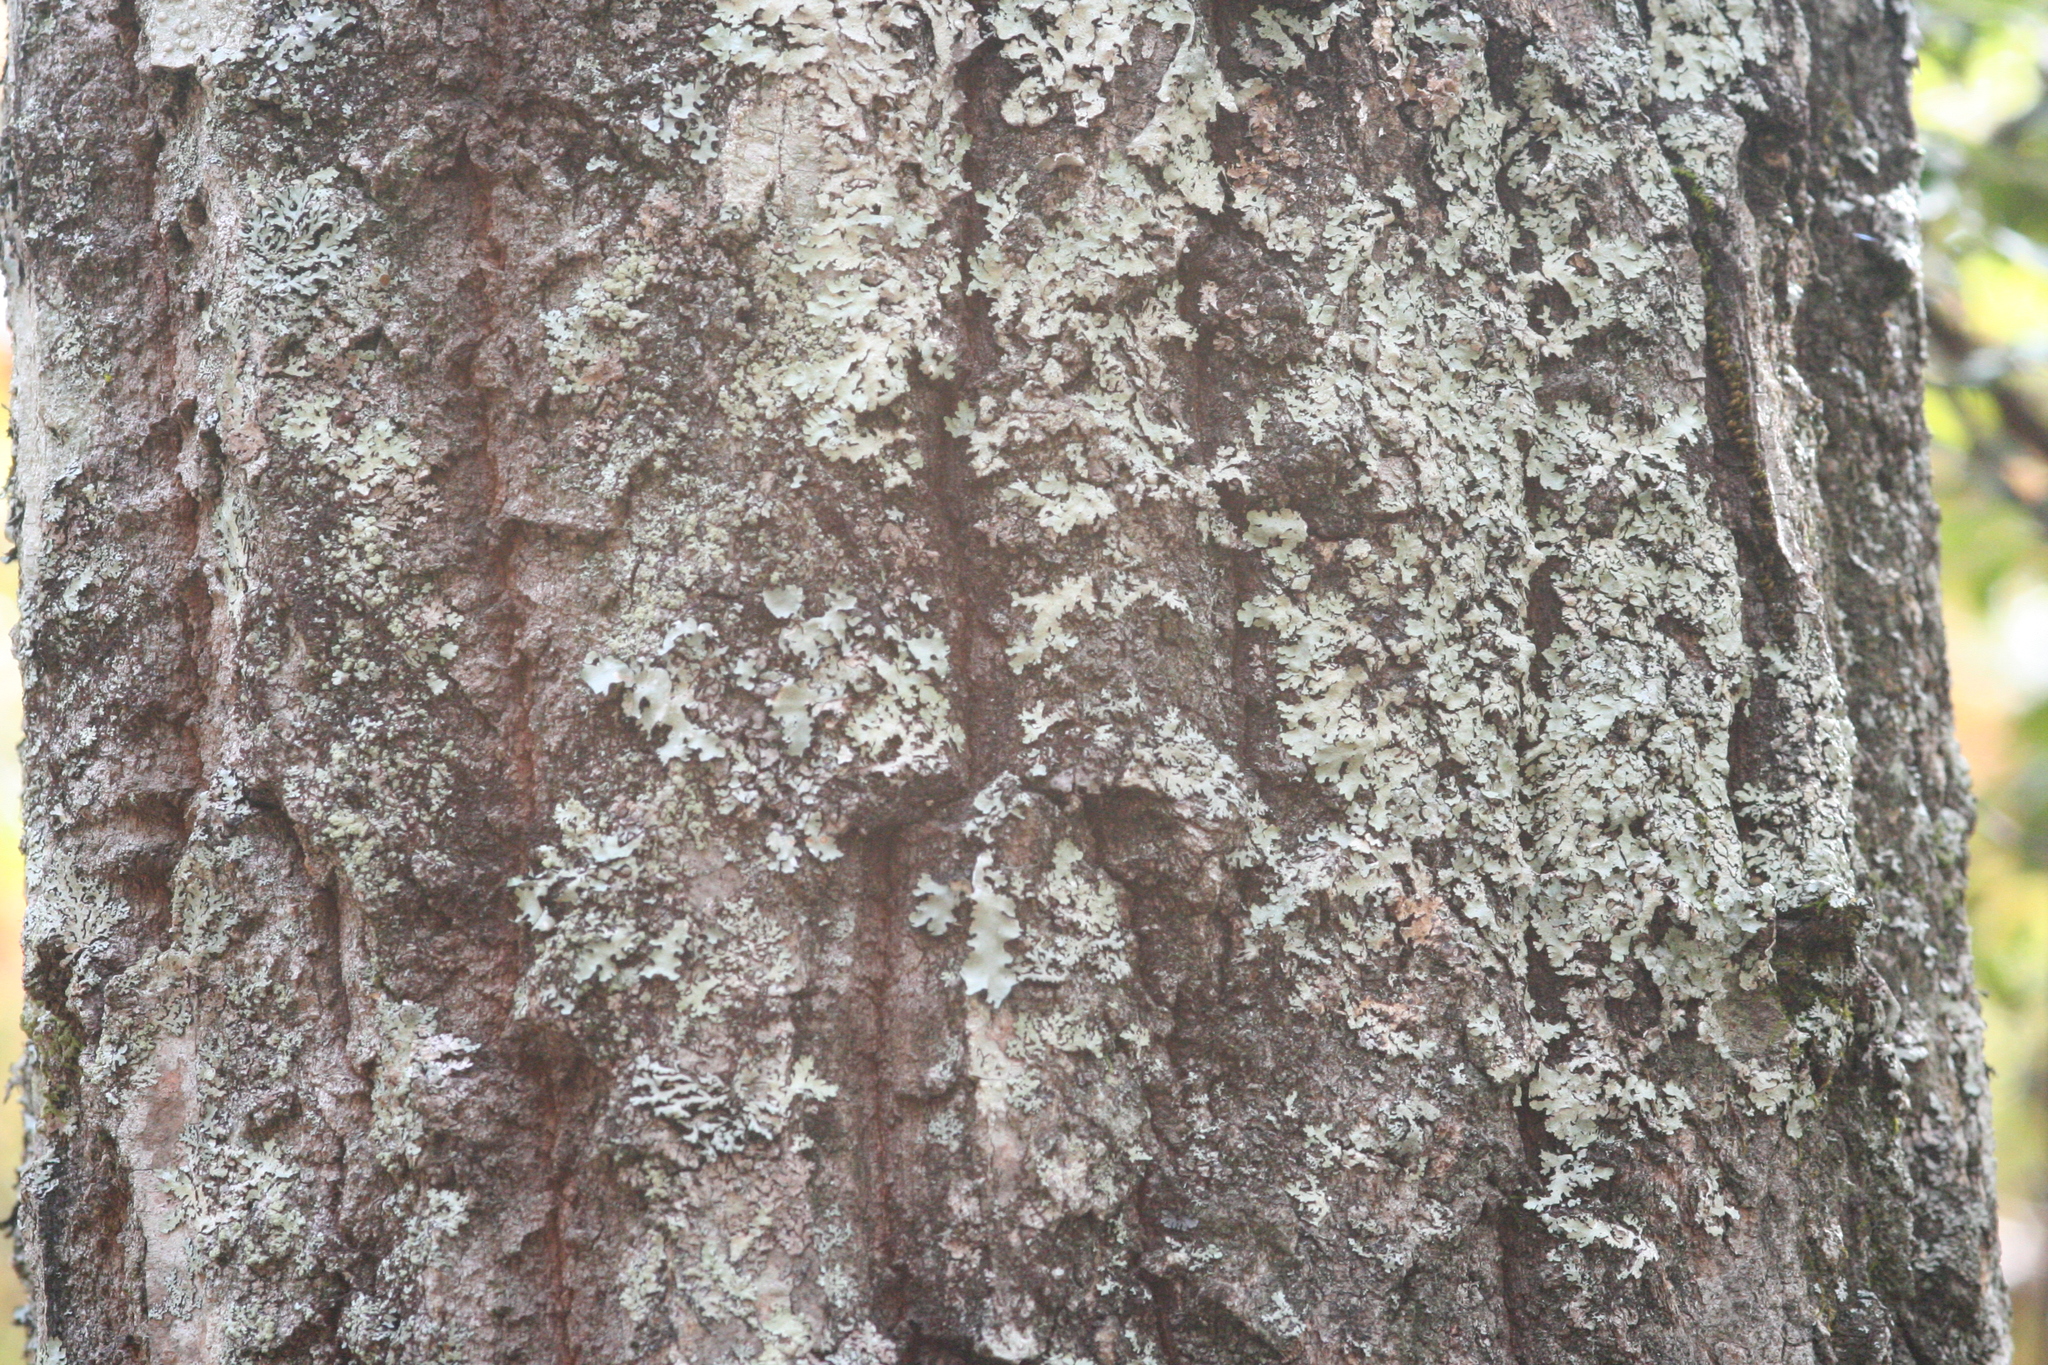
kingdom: Plantae
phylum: Tracheophyta
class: Magnoliopsida
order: Fagales
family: Fagaceae
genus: Quercus
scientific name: Quercus montana
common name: Chestnut oak
